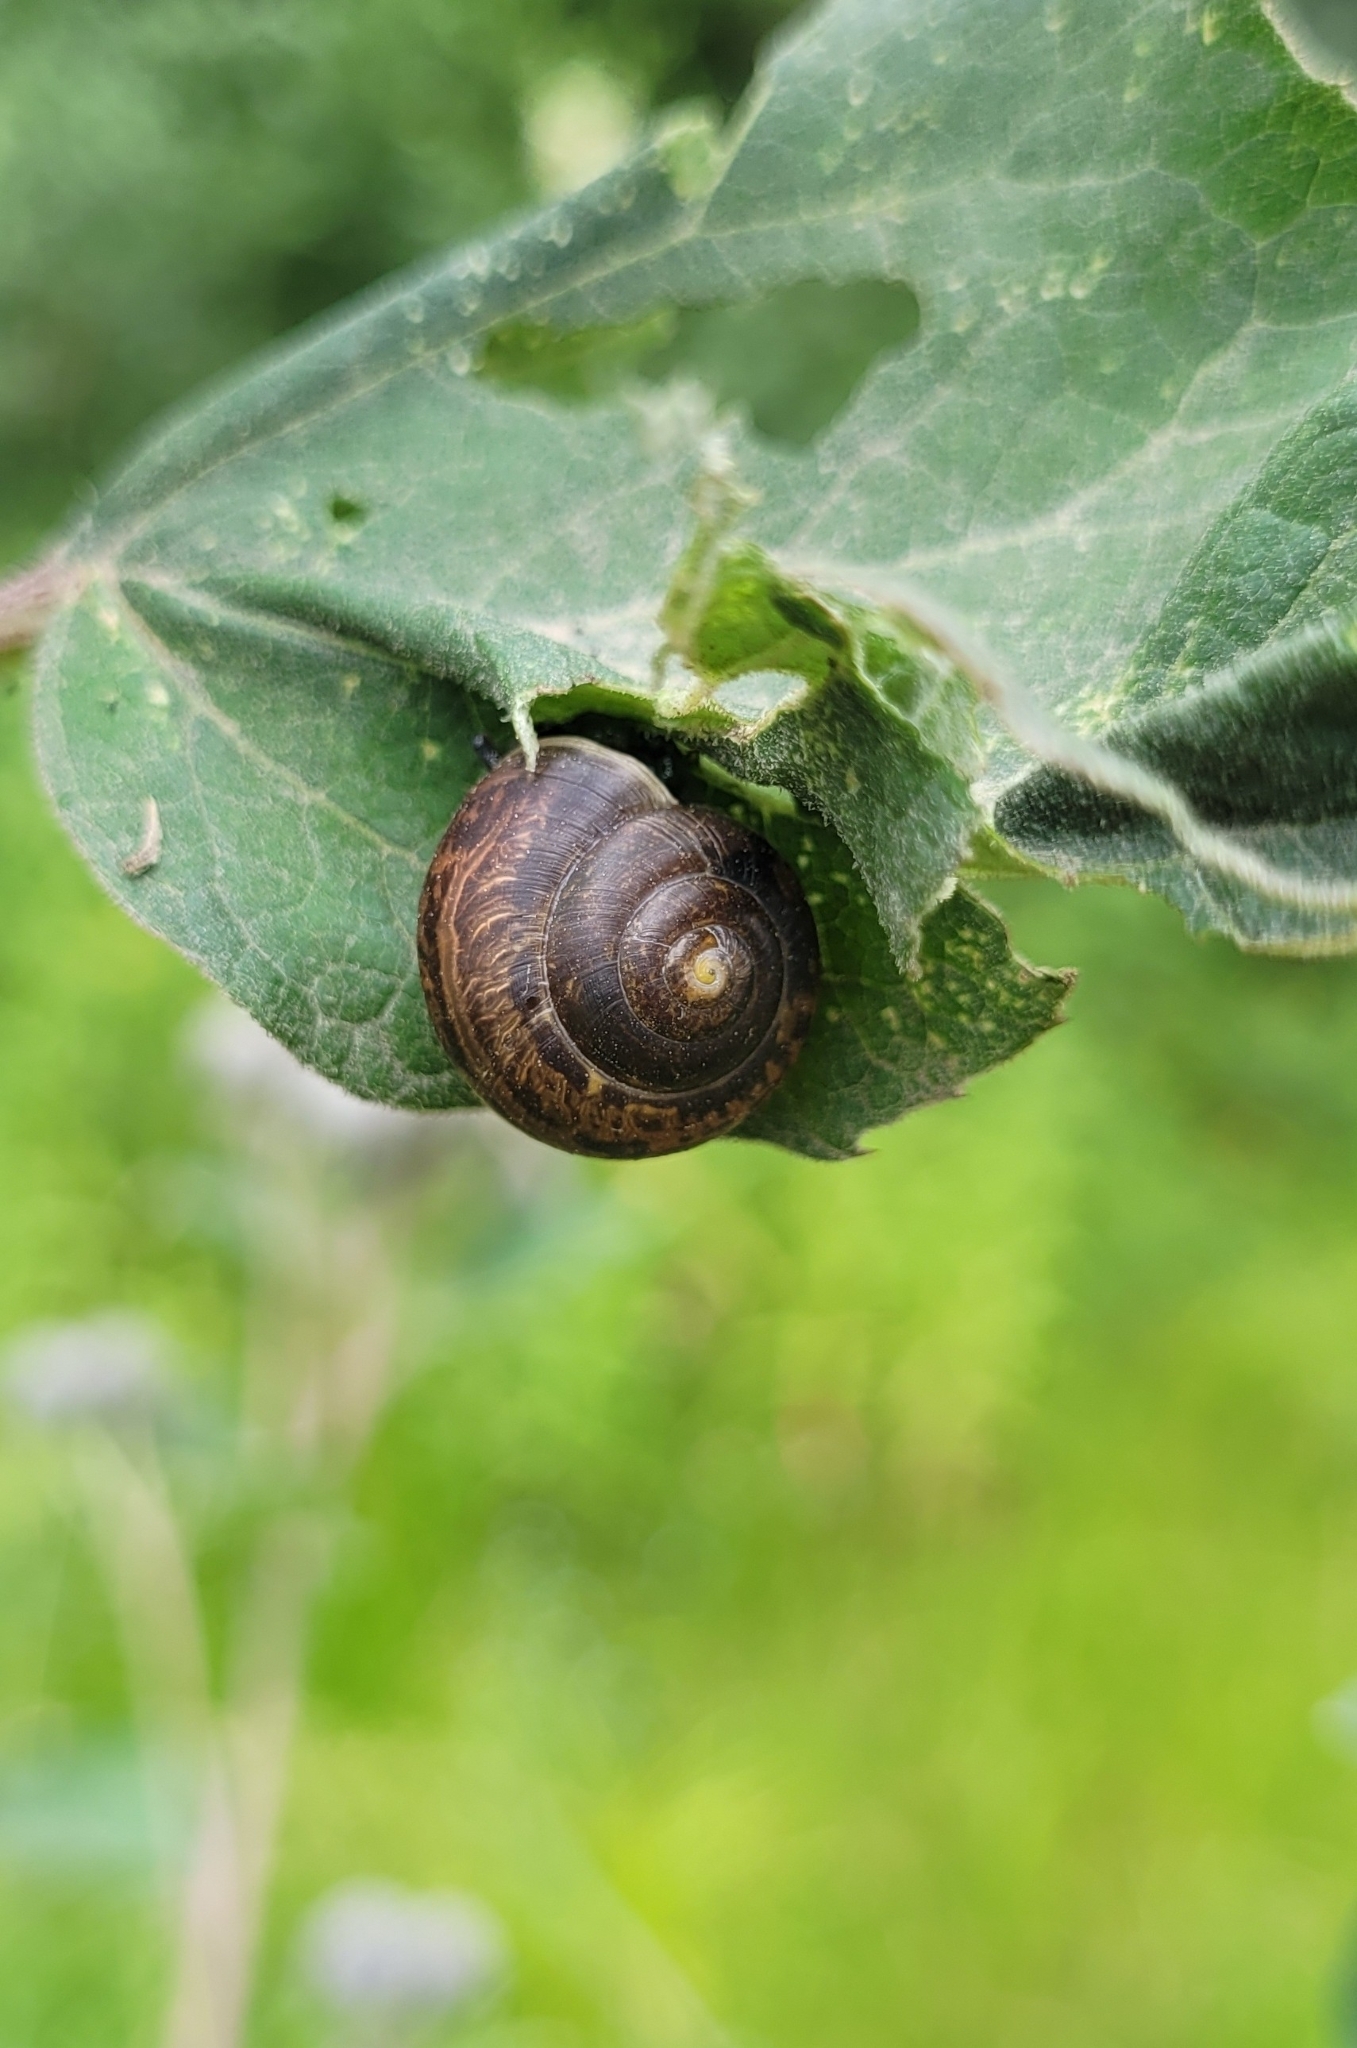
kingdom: Animalia
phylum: Mollusca
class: Gastropoda
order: Stylommatophora
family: Camaenidae
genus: Fruticicola
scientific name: Fruticicola fruticum
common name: Bush snail
